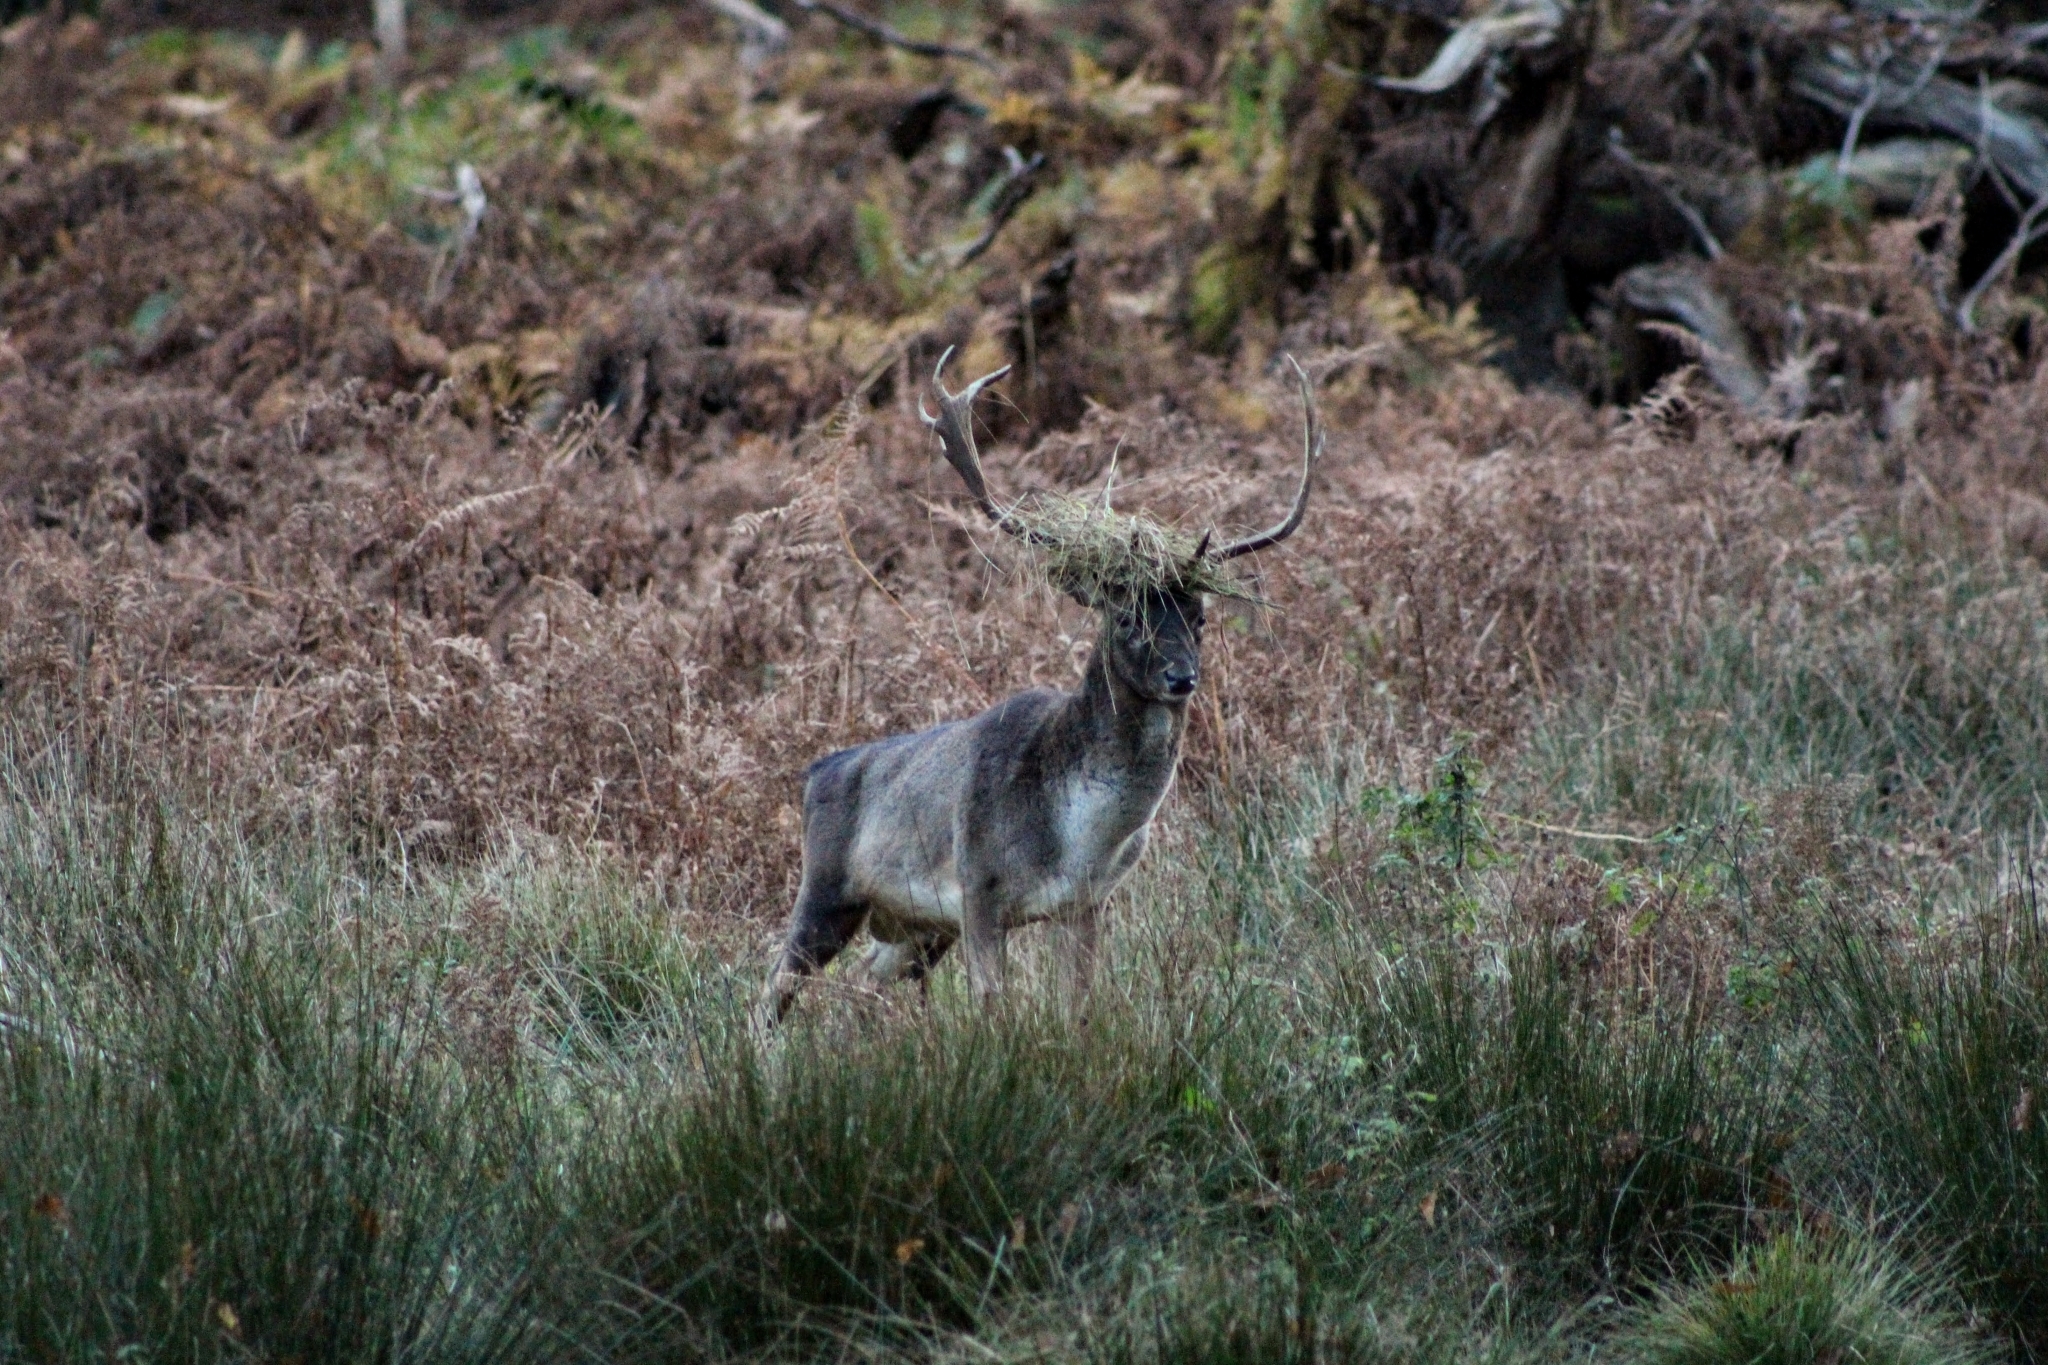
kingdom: Animalia
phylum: Chordata
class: Mammalia
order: Artiodactyla
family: Cervidae
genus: Dama
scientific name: Dama dama
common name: Fallow deer
